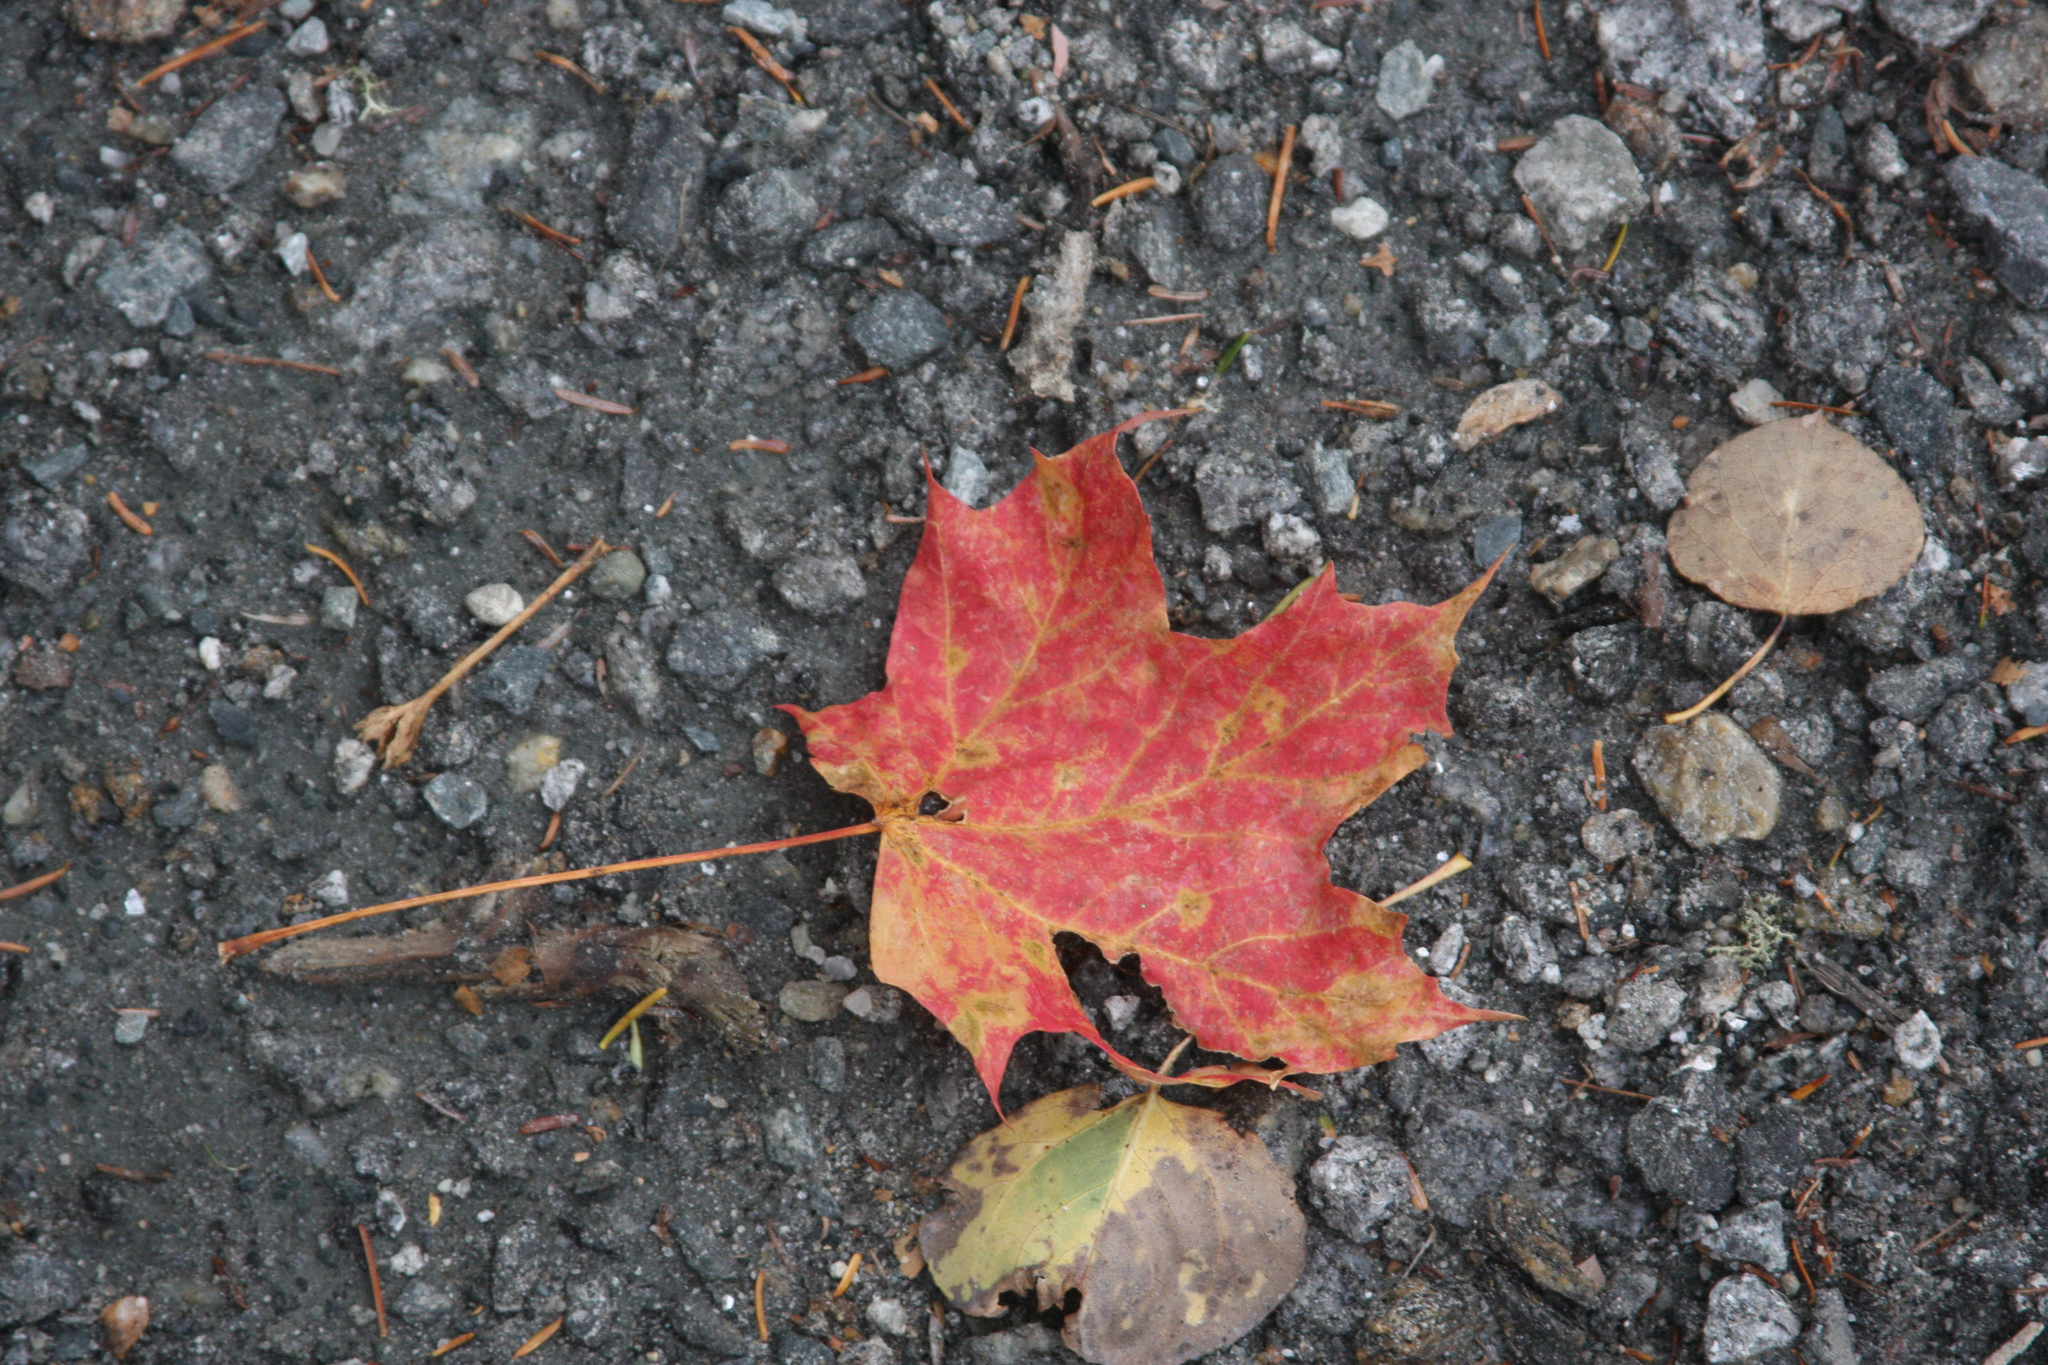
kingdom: Plantae
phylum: Tracheophyta
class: Magnoliopsida
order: Sapindales
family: Sapindaceae
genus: Acer
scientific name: Acer saccharum
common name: Sugar maple
